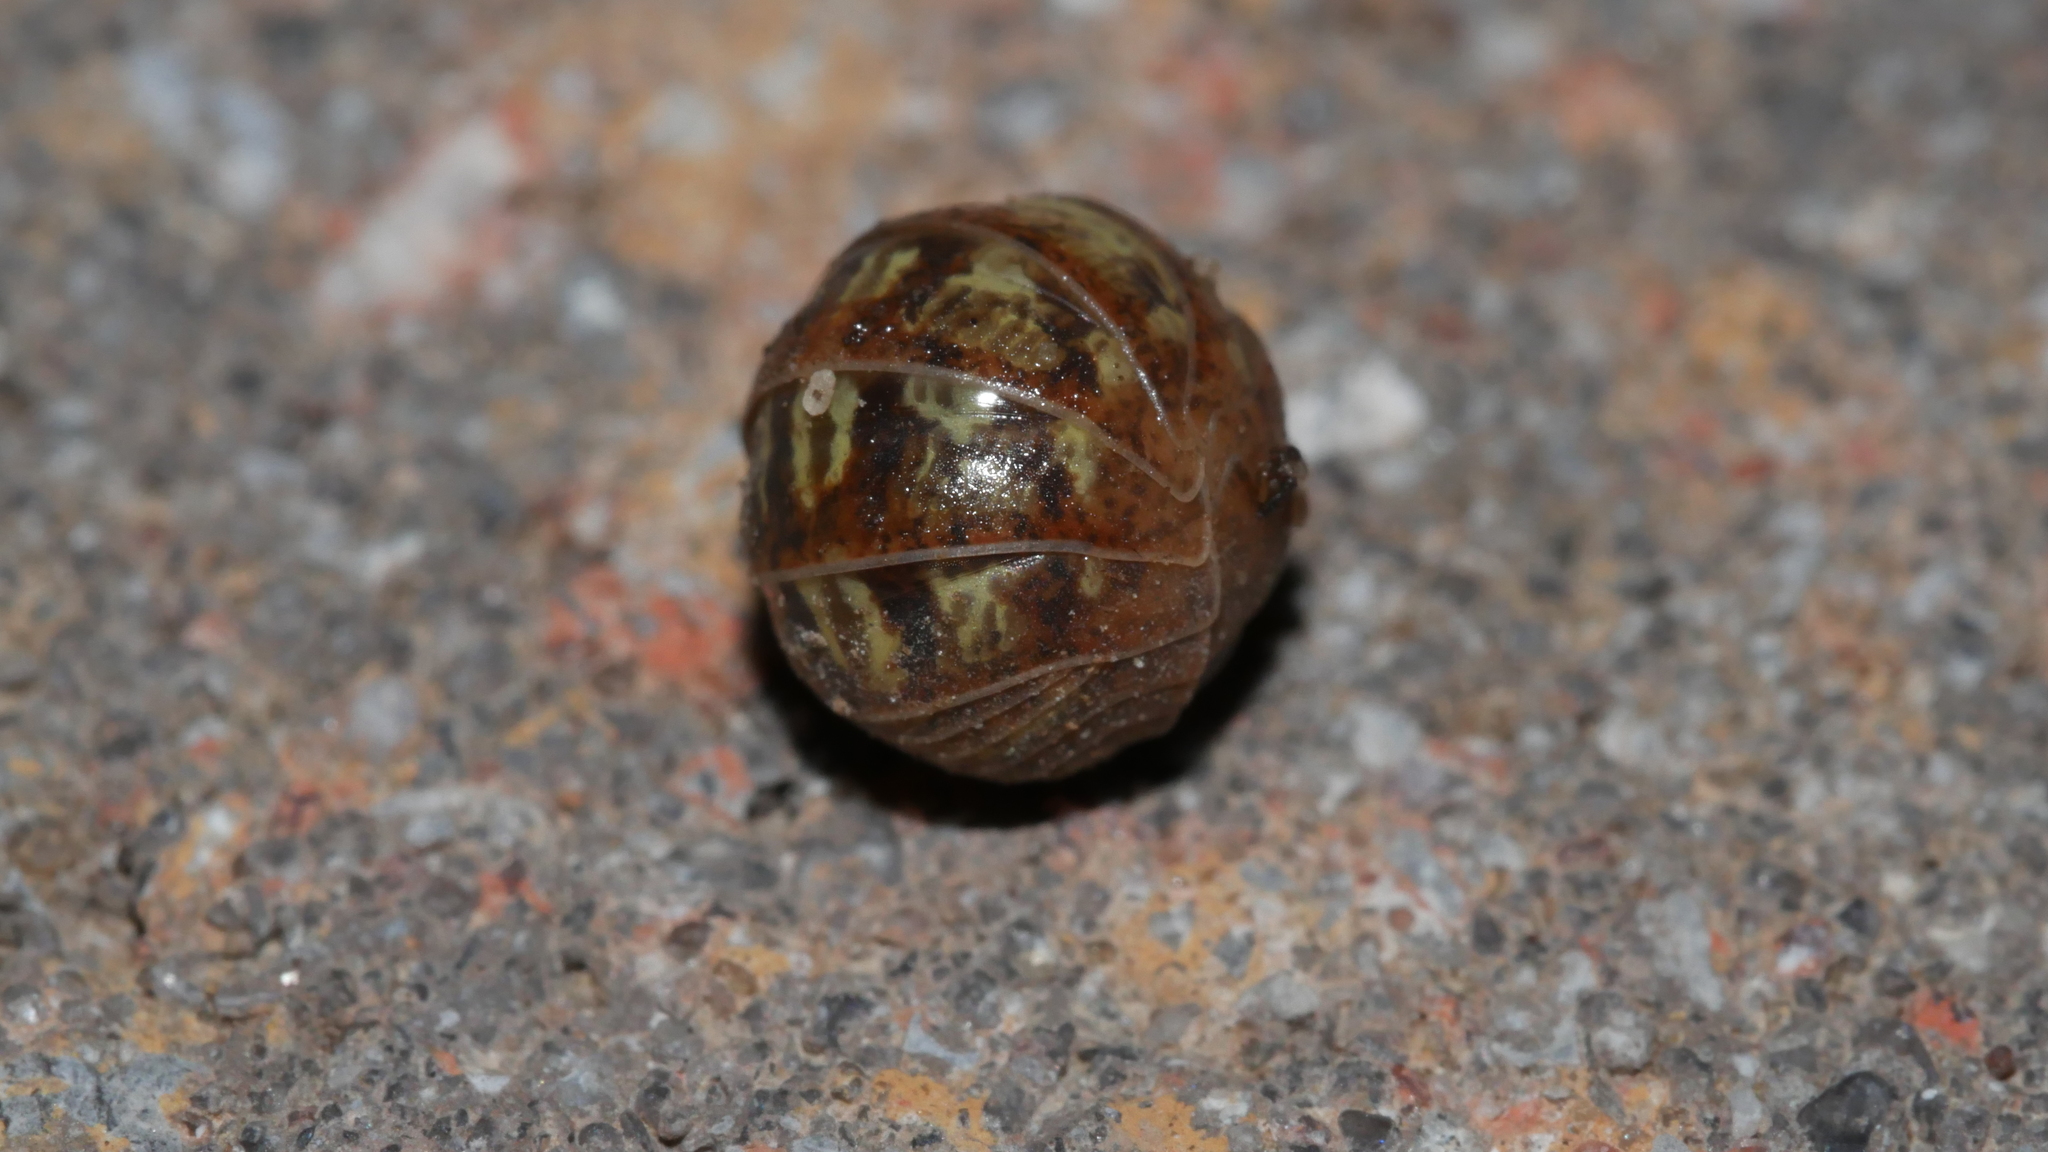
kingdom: Animalia
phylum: Arthropoda
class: Malacostraca
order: Isopoda
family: Armadillidiidae
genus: Armadillidium
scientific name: Armadillidium vulgare
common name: Common pill woodlouse
